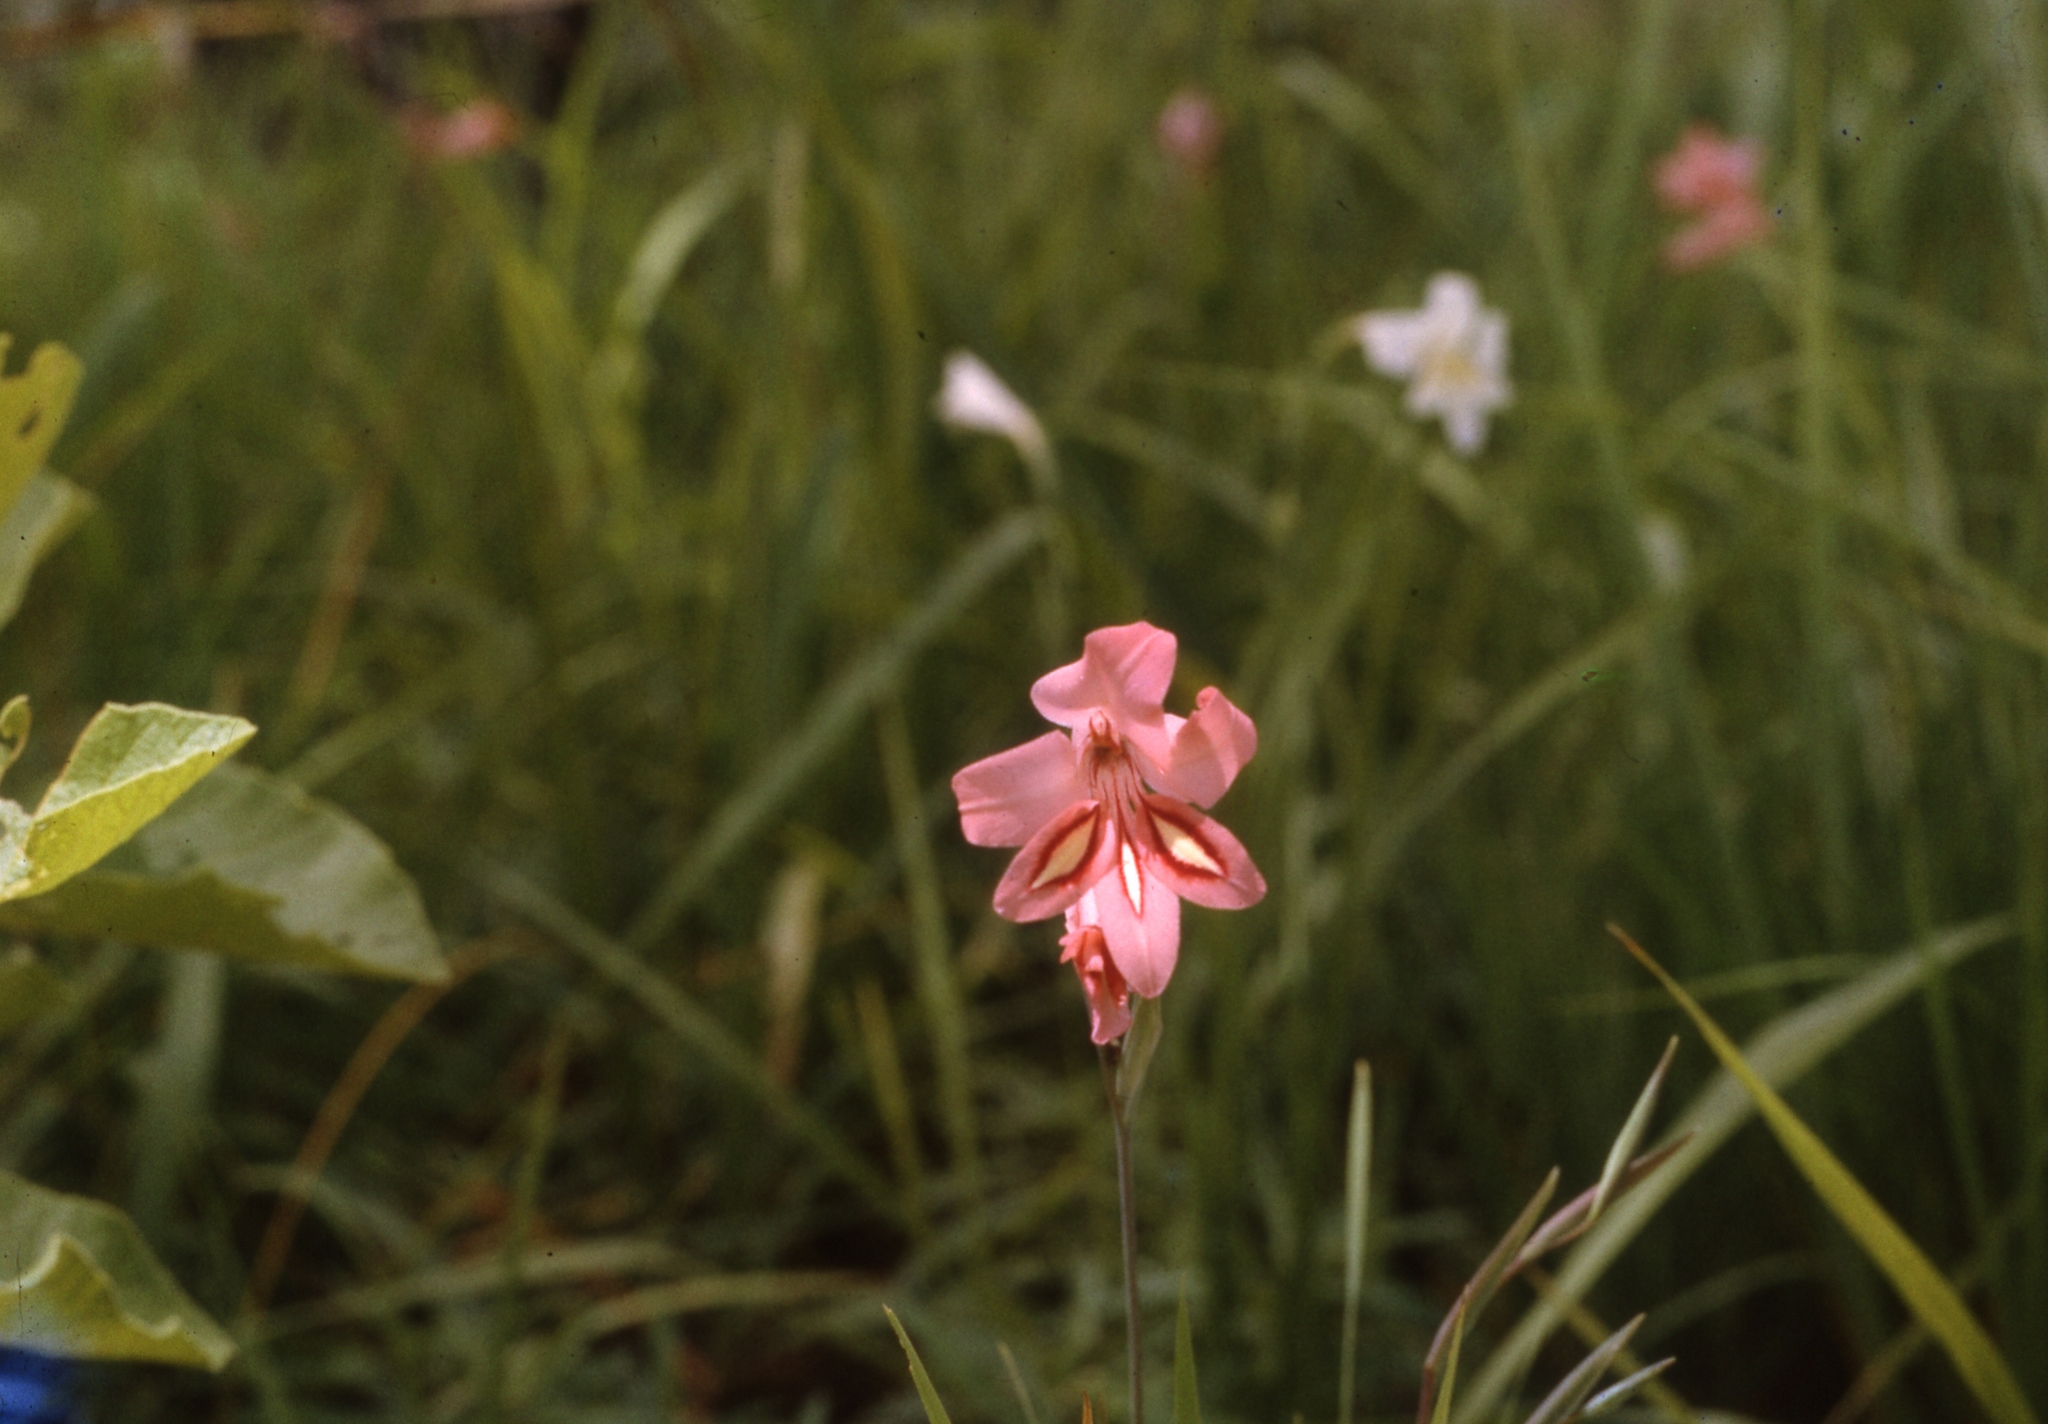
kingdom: Plantae
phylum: Tracheophyta
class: Liliopsida
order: Asparagales
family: Iridaceae
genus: Gladiolus
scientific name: Gladiolus oligophlebius
